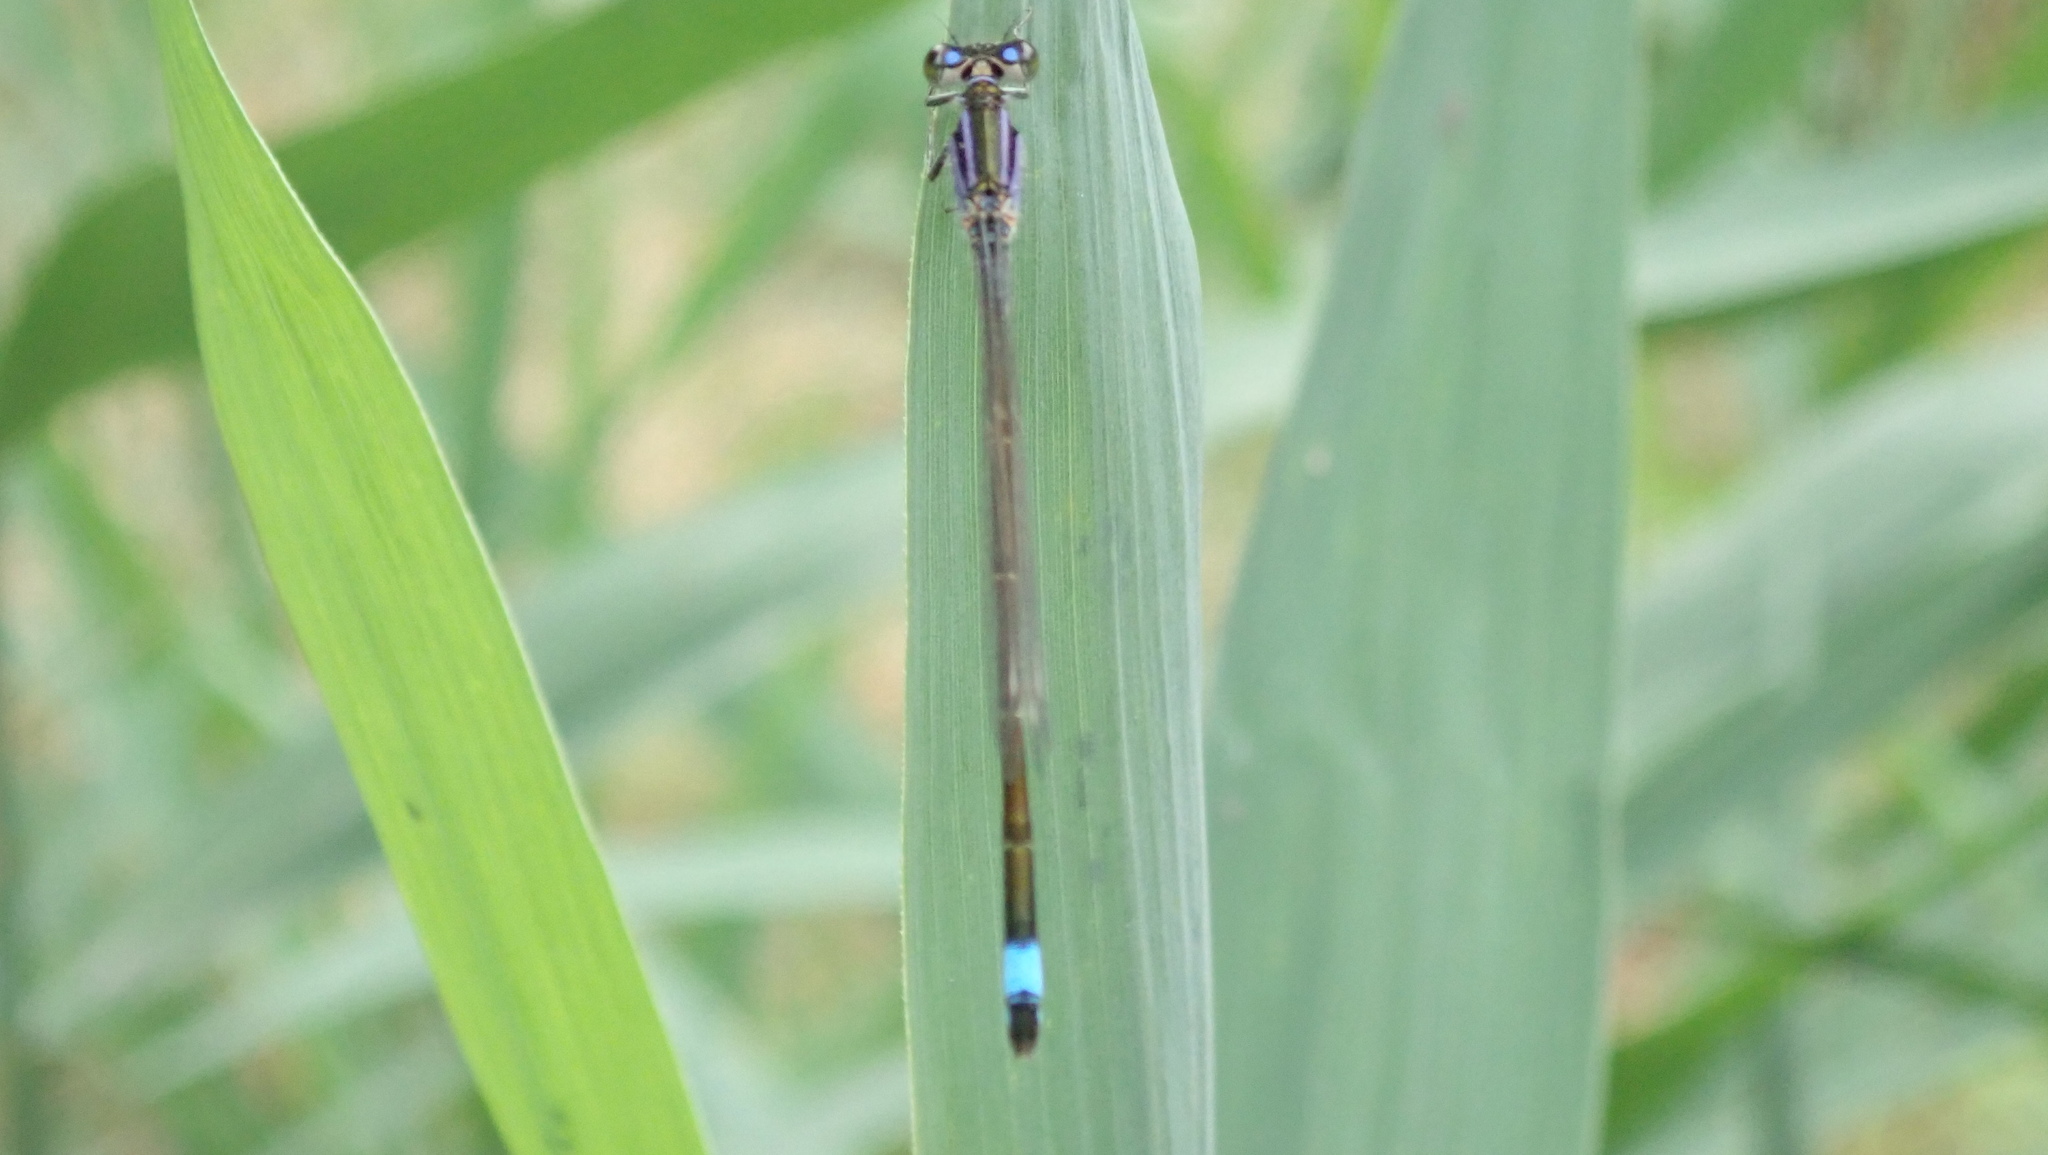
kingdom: Animalia
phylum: Arthropoda
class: Insecta
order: Odonata
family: Coenagrionidae
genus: Ischnura
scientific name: Ischnura elegans
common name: Blue-tailed damselfly
